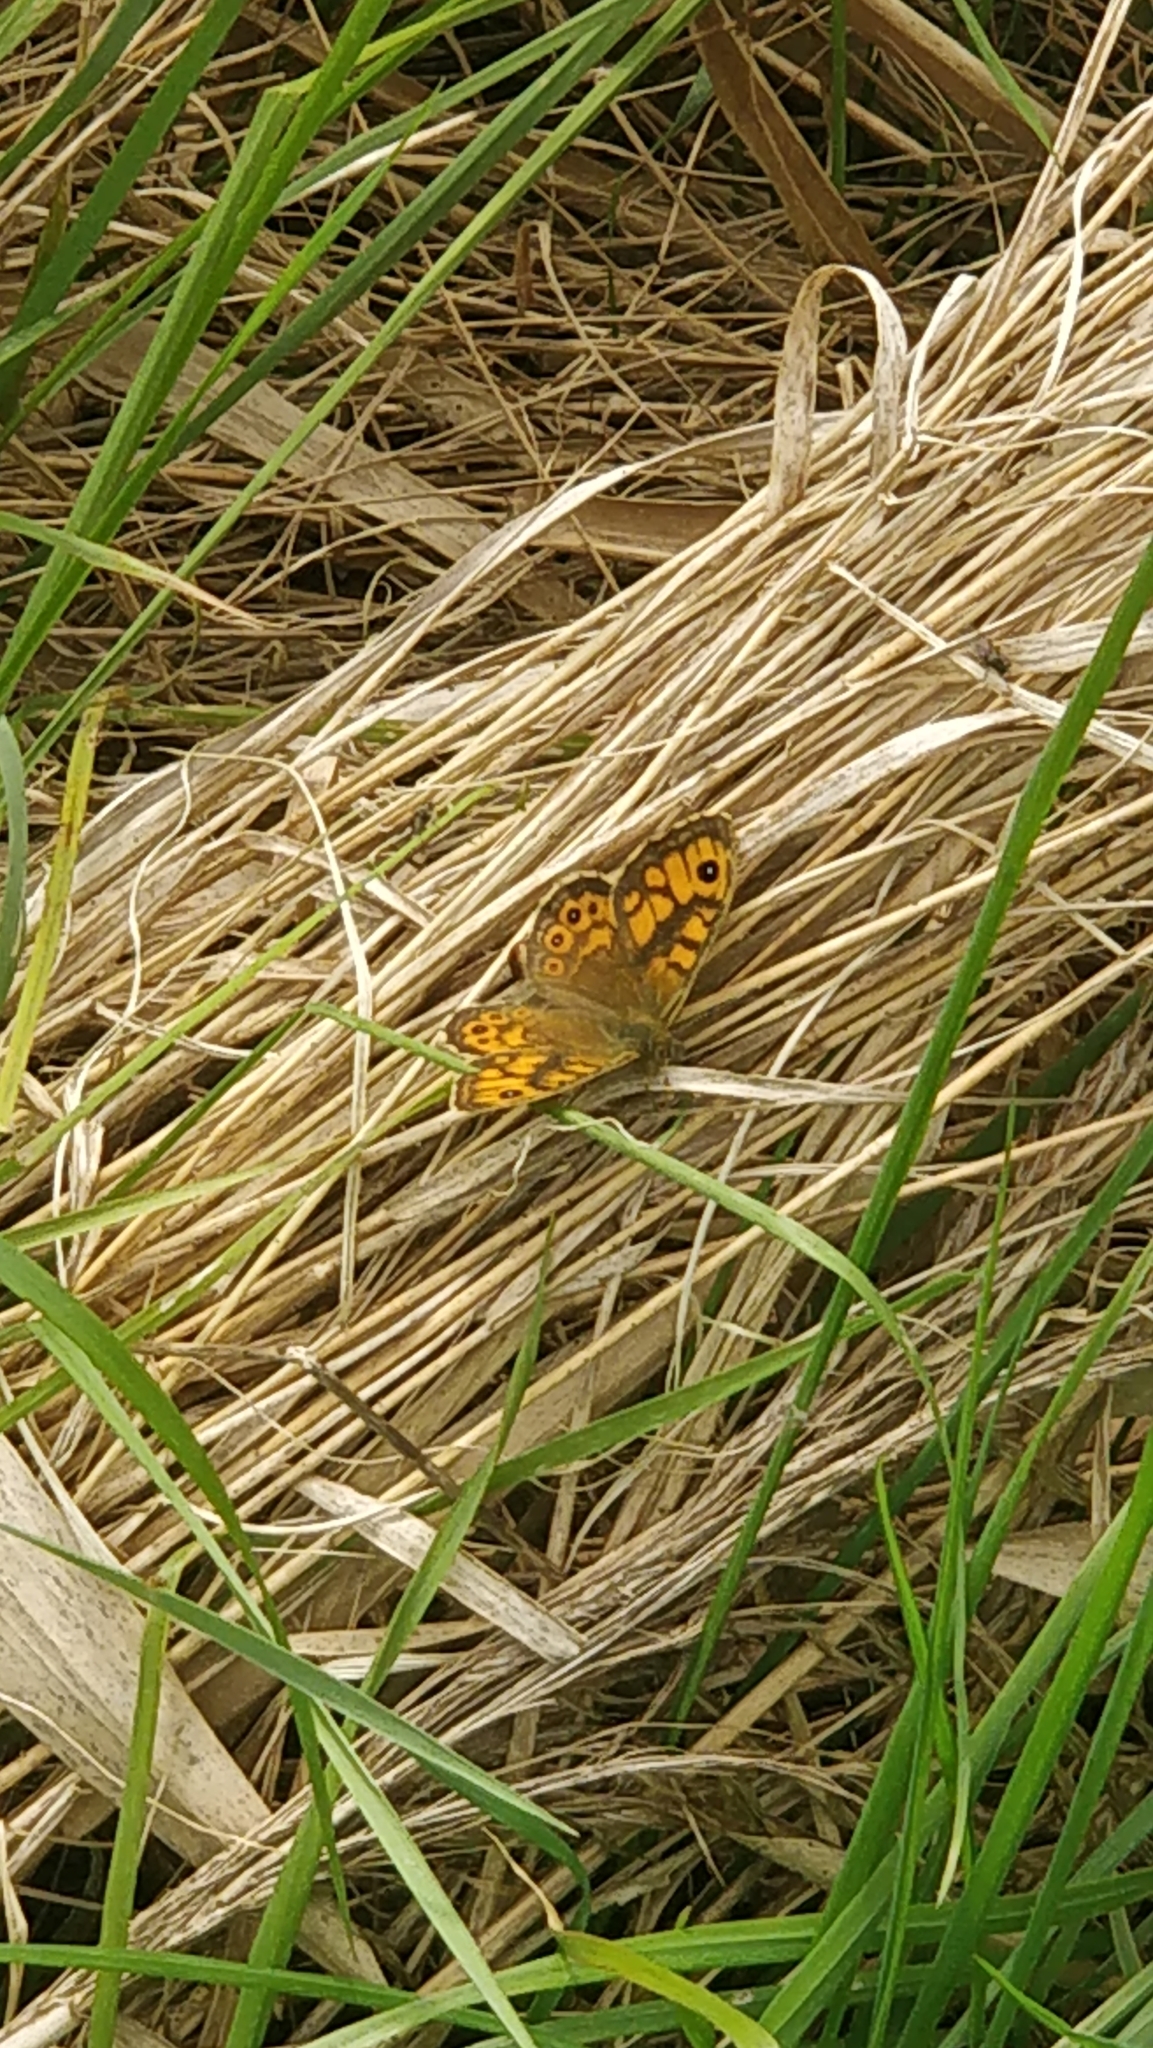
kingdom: Animalia
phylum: Arthropoda
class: Insecta
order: Lepidoptera
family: Nymphalidae
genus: Pararge
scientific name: Pararge Lasiommata megera
